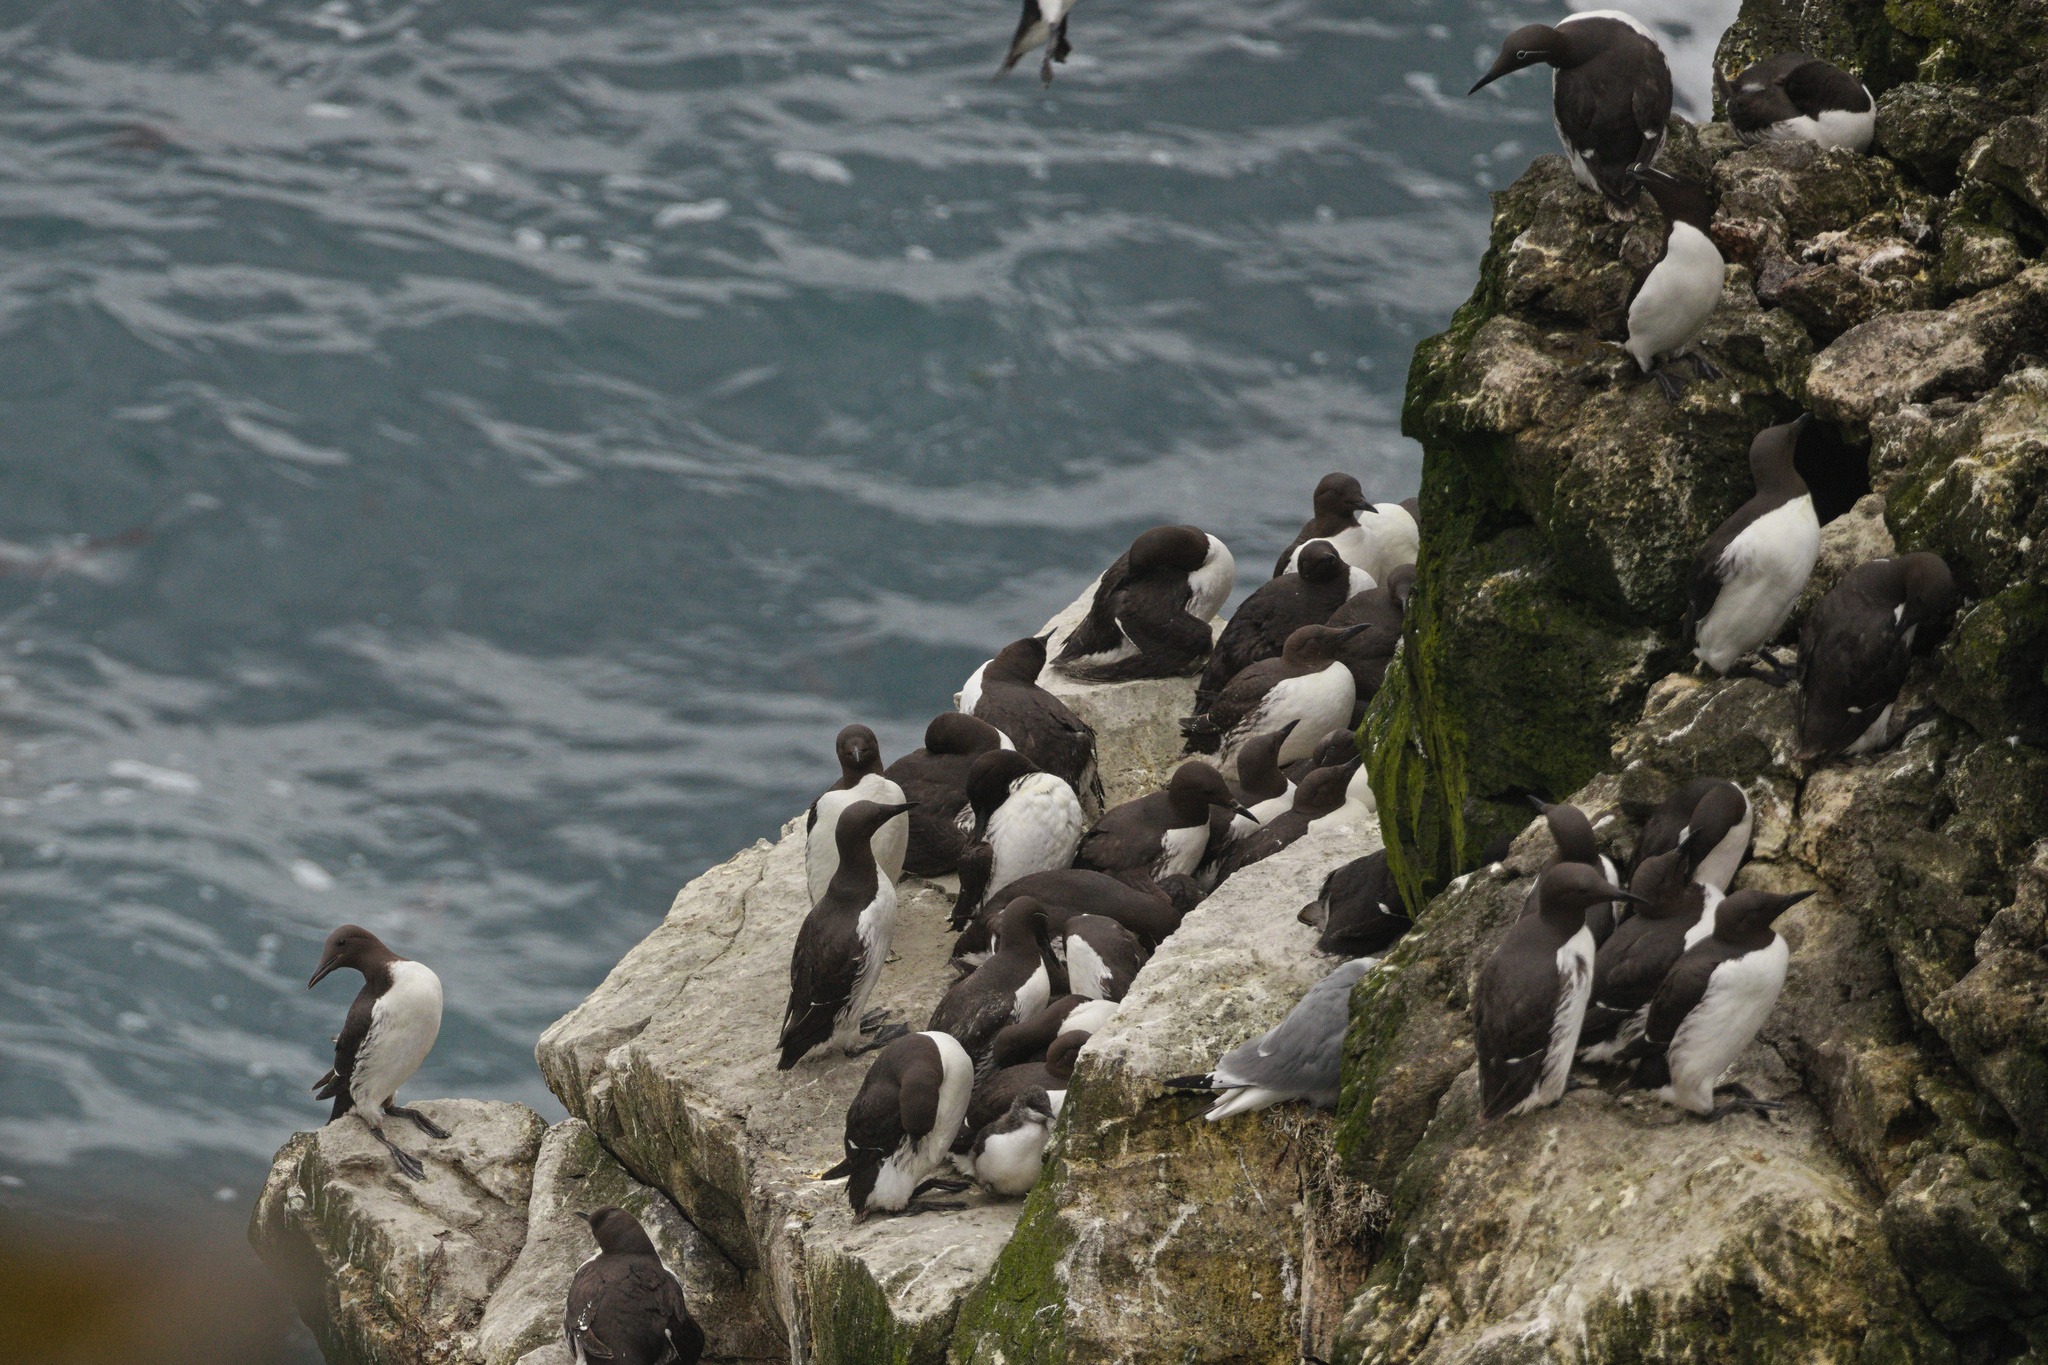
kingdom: Animalia
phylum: Chordata
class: Aves
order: Charadriiformes
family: Alcidae
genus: Uria
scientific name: Uria aalge
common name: Common murre
